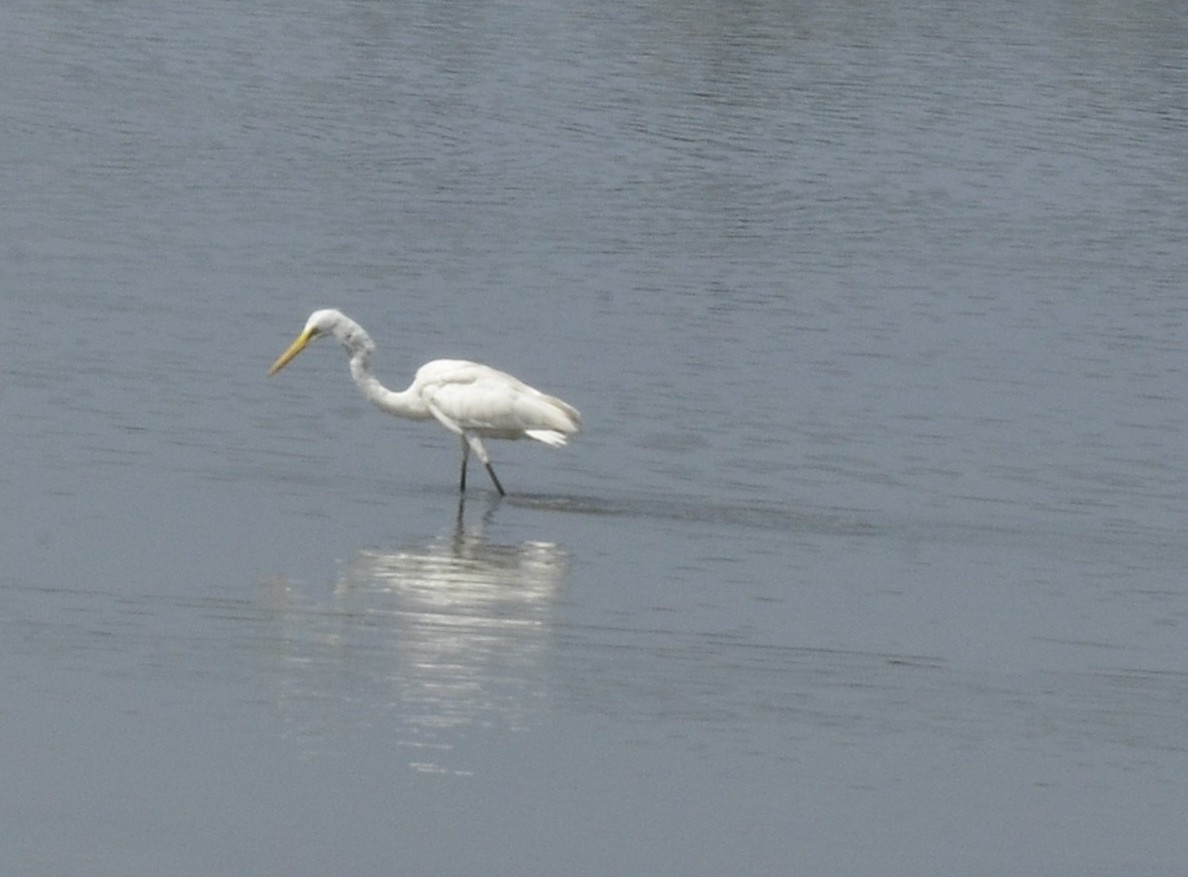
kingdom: Animalia
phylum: Chordata
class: Aves
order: Pelecaniformes
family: Ardeidae
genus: Ardea
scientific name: Ardea alba
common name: Great egret
